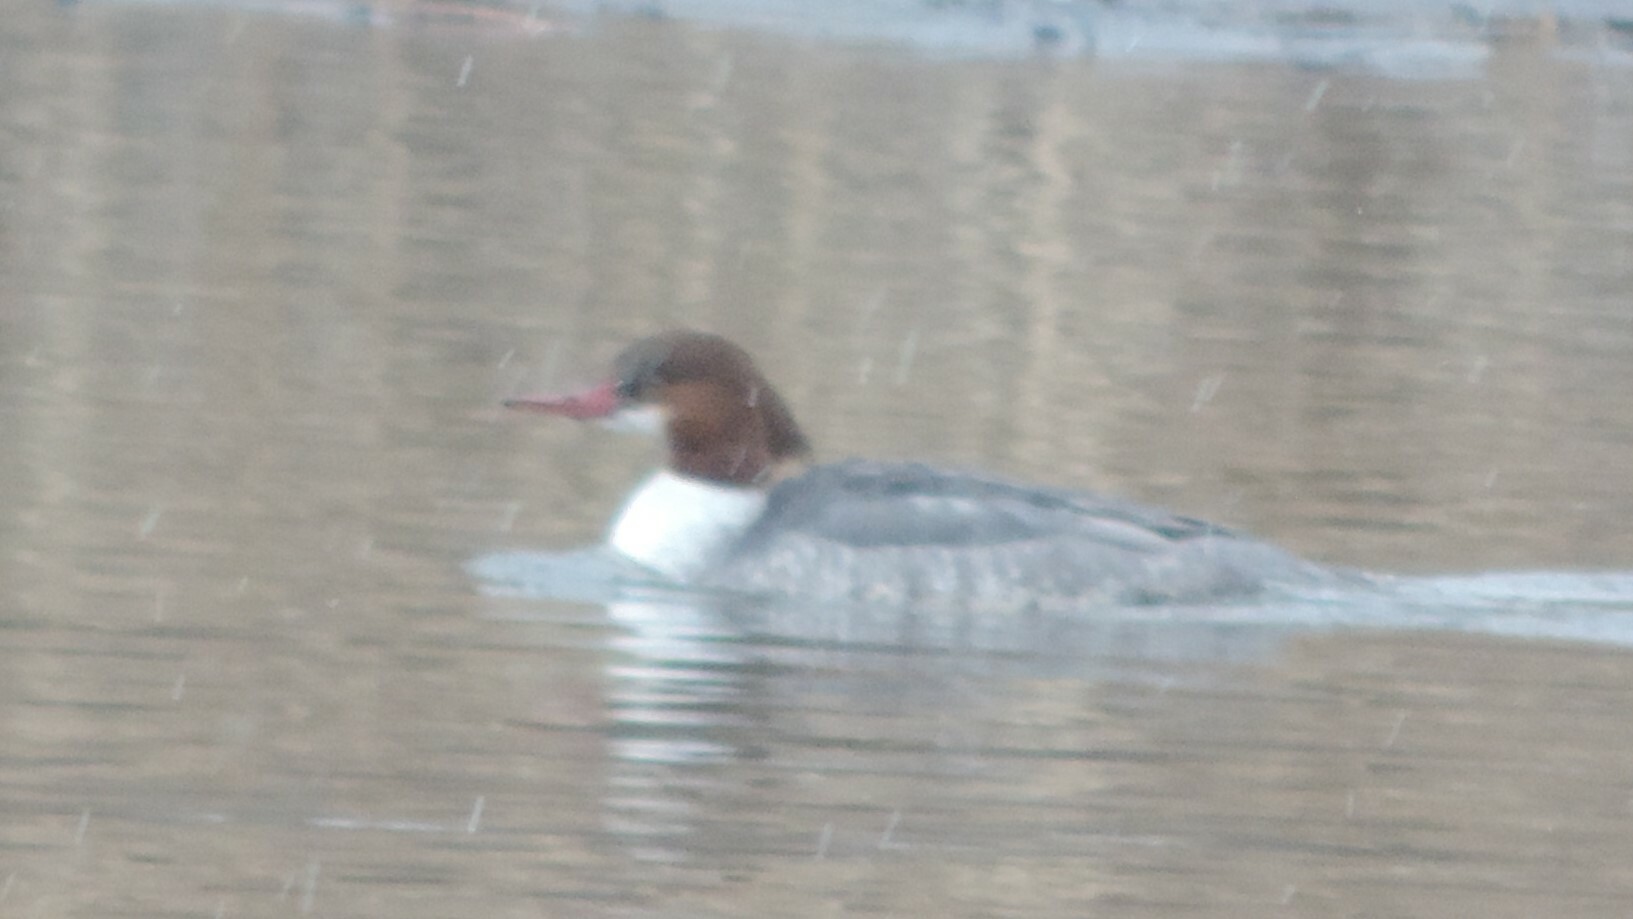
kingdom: Animalia
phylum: Chordata
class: Aves
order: Anseriformes
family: Anatidae
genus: Mergus
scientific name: Mergus merganser
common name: Common merganser
